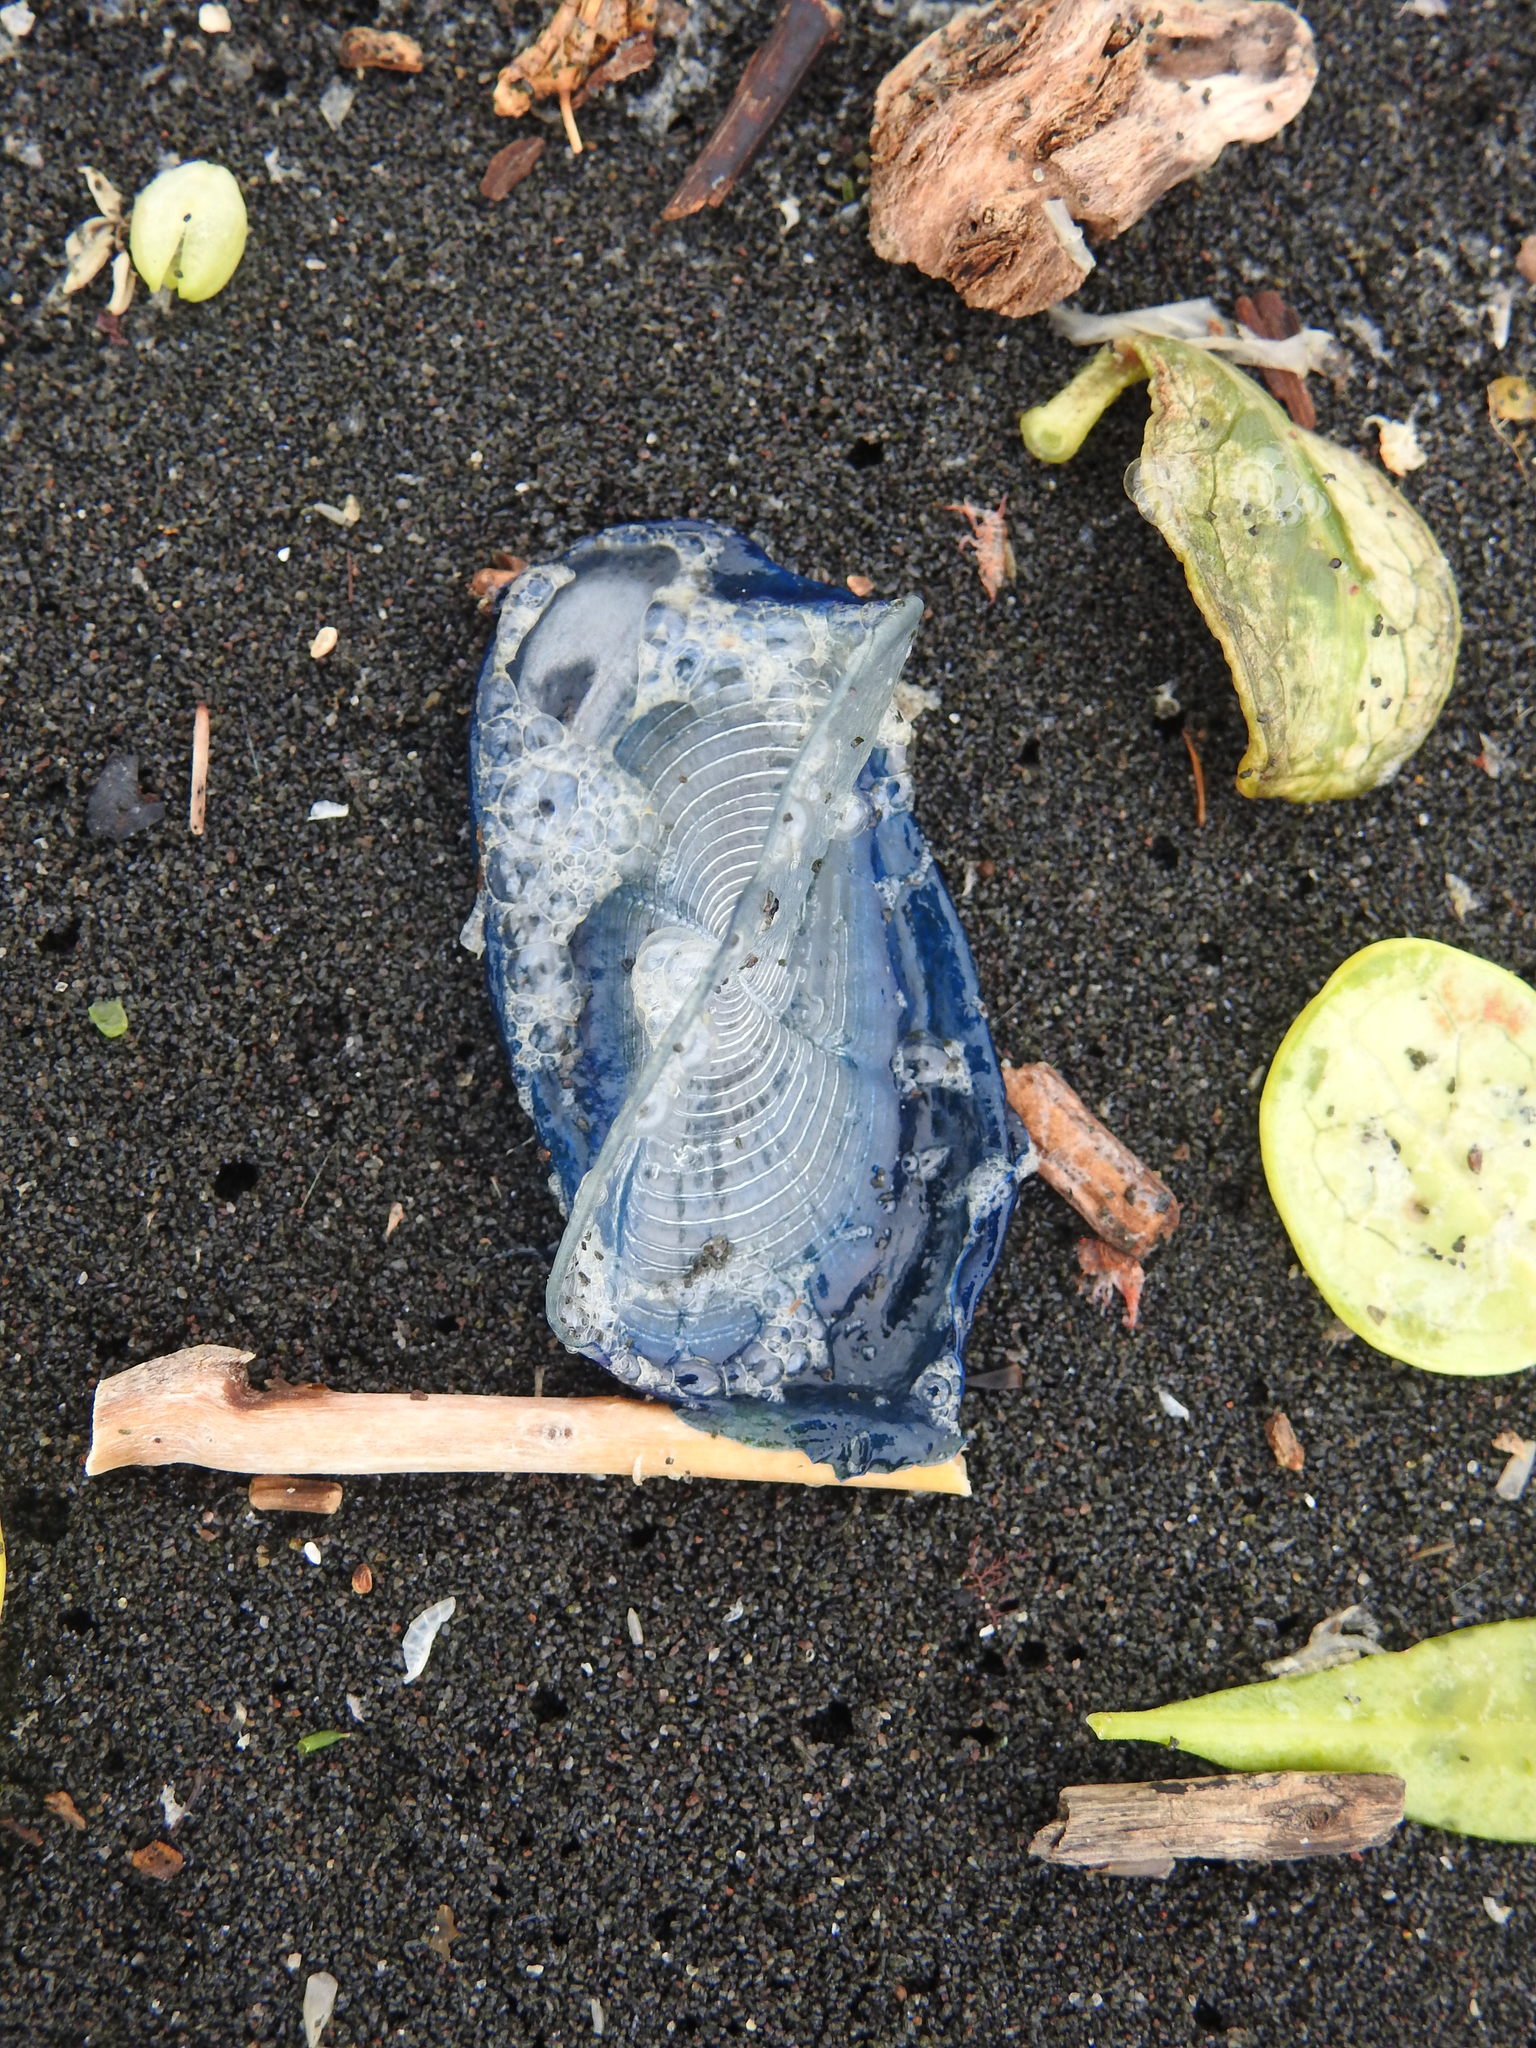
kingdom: Animalia
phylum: Cnidaria
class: Hydrozoa
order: Anthoathecata
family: Porpitidae
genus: Velella
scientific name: Velella velella
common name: By-the-wind-sailor
